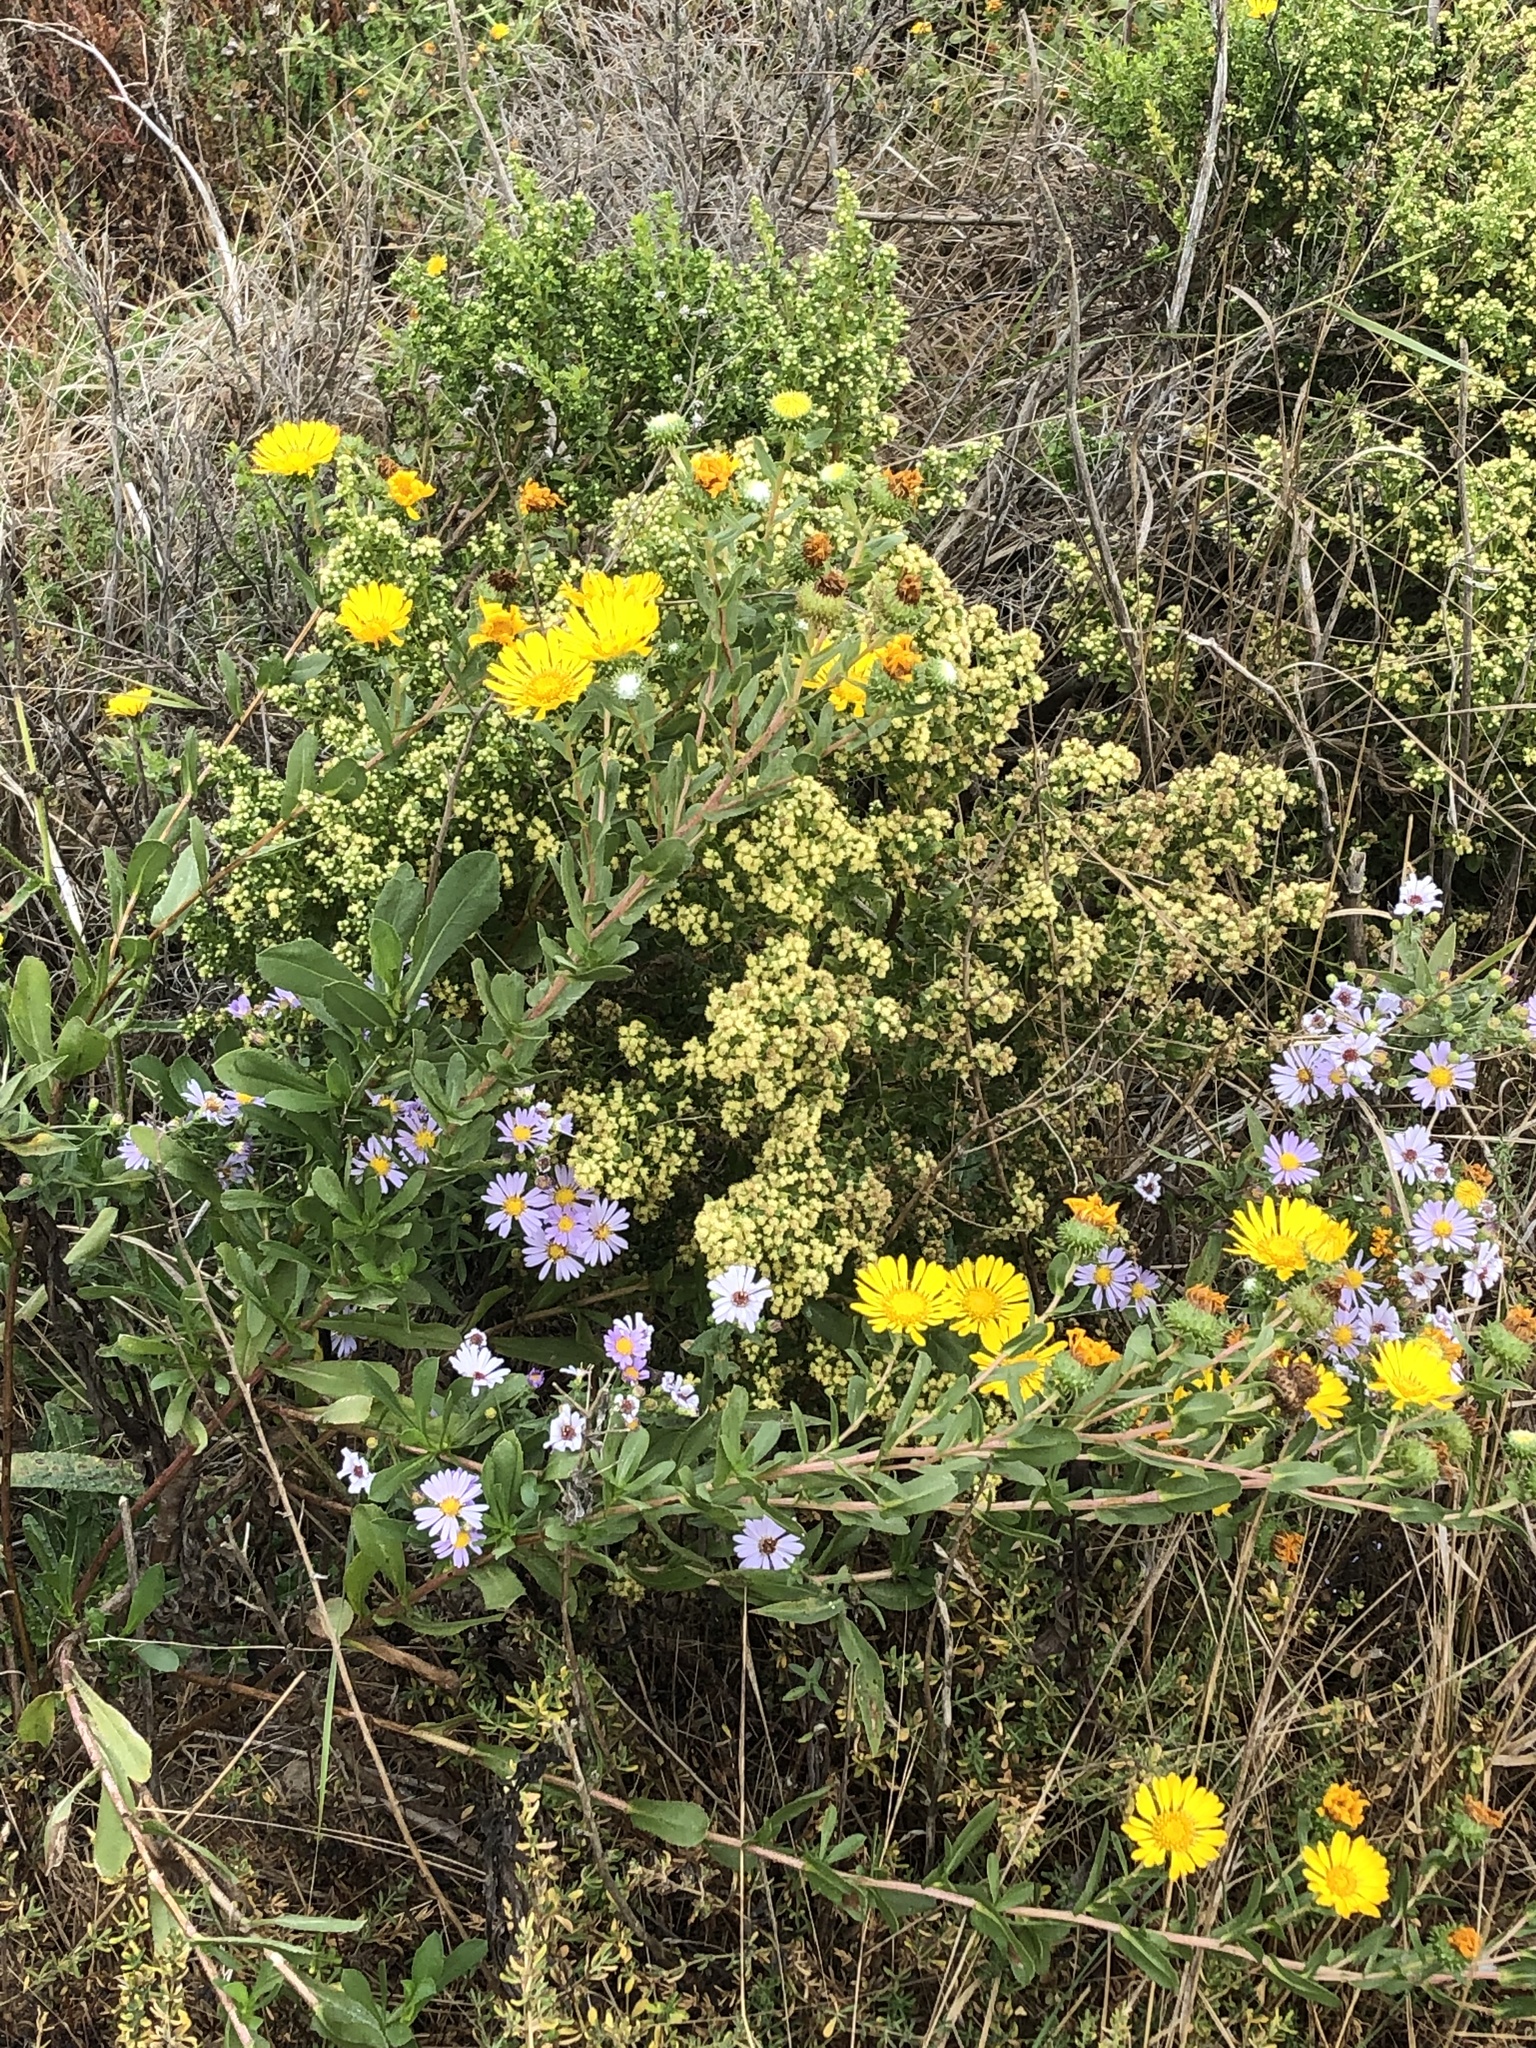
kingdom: Plantae
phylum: Tracheophyta
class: Magnoliopsida
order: Asterales
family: Asteraceae
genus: Grindelia
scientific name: Grindelia hirsutula
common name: Hairy gumweed
